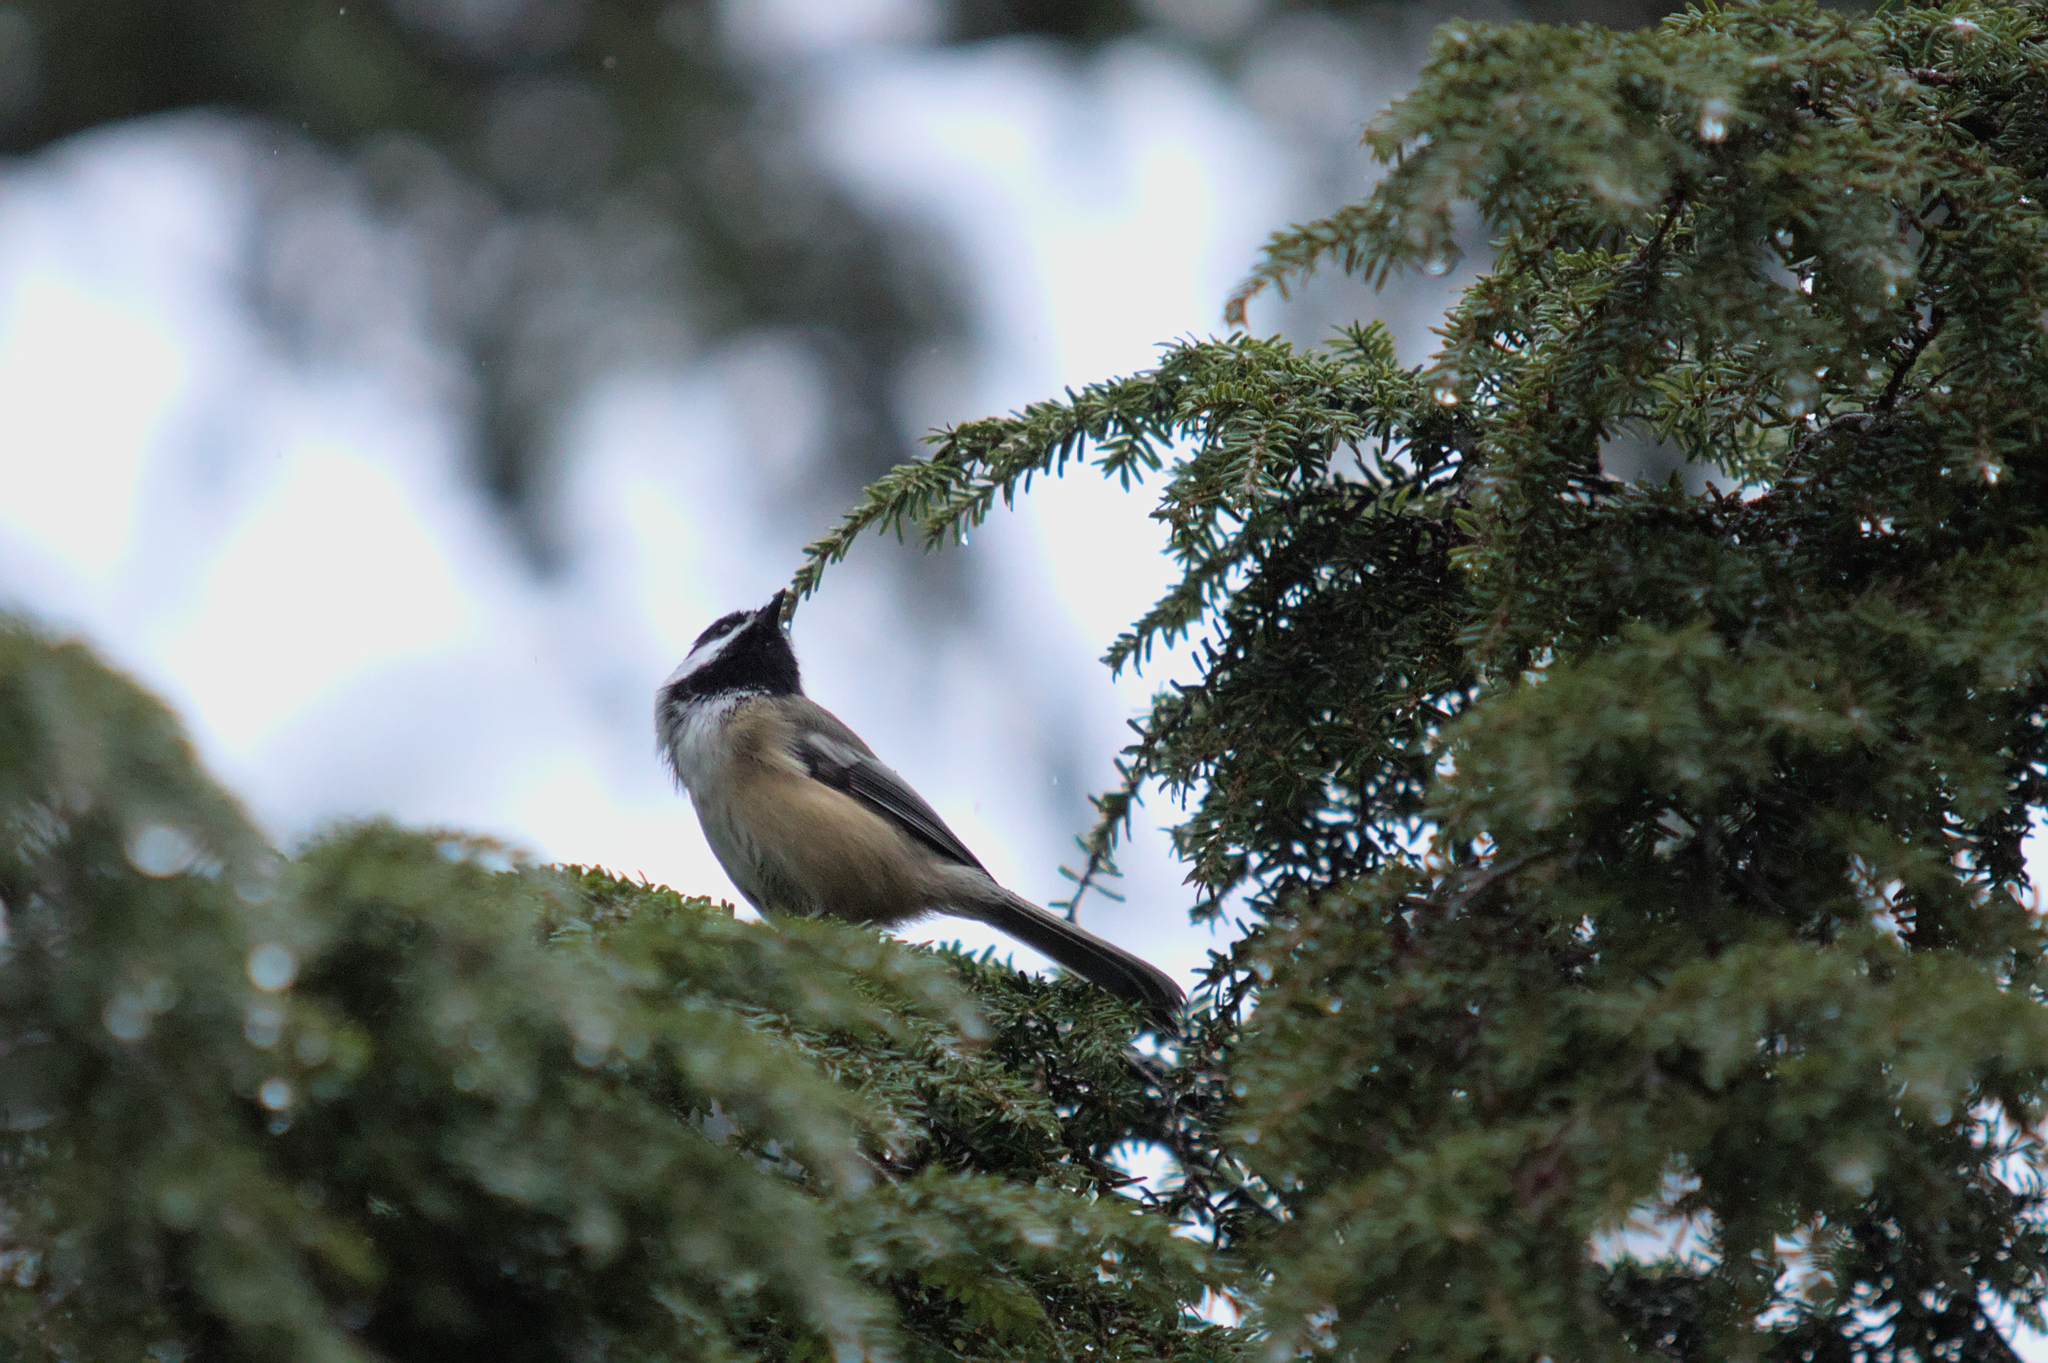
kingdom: Animalia
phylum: Chordata
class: Aves
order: Passeriformes
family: Paridae
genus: Poecile
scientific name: Poecile atricapillus
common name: Black-capped chickadee
